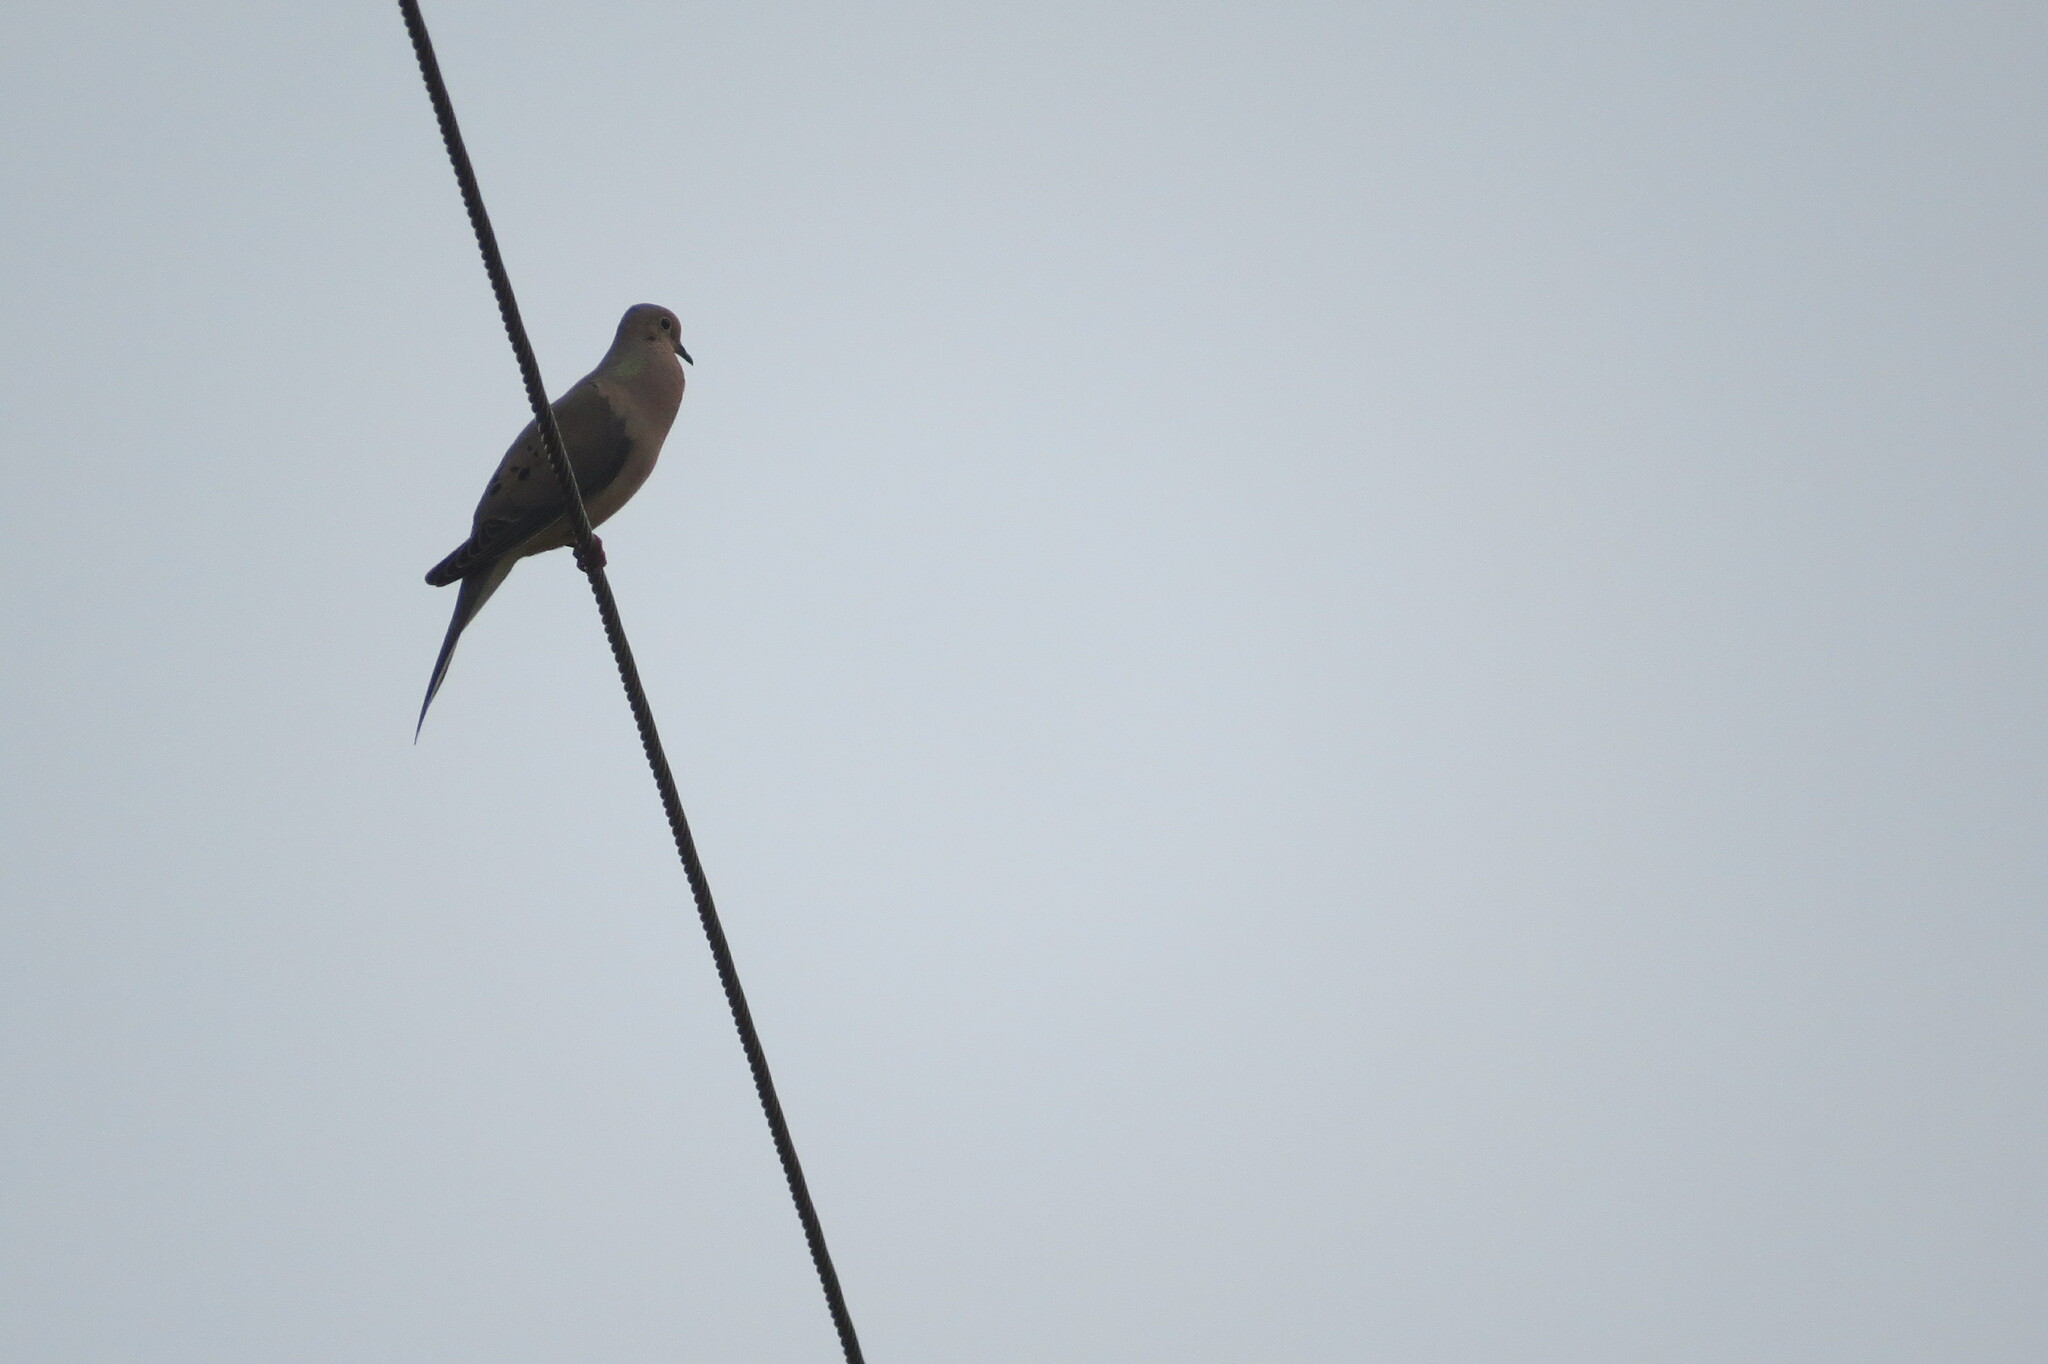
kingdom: Animalia
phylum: Chordata
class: Aves
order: Columbiformes
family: Columbidae
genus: Zenaida
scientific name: Zenaida macroura
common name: Mourning dove
